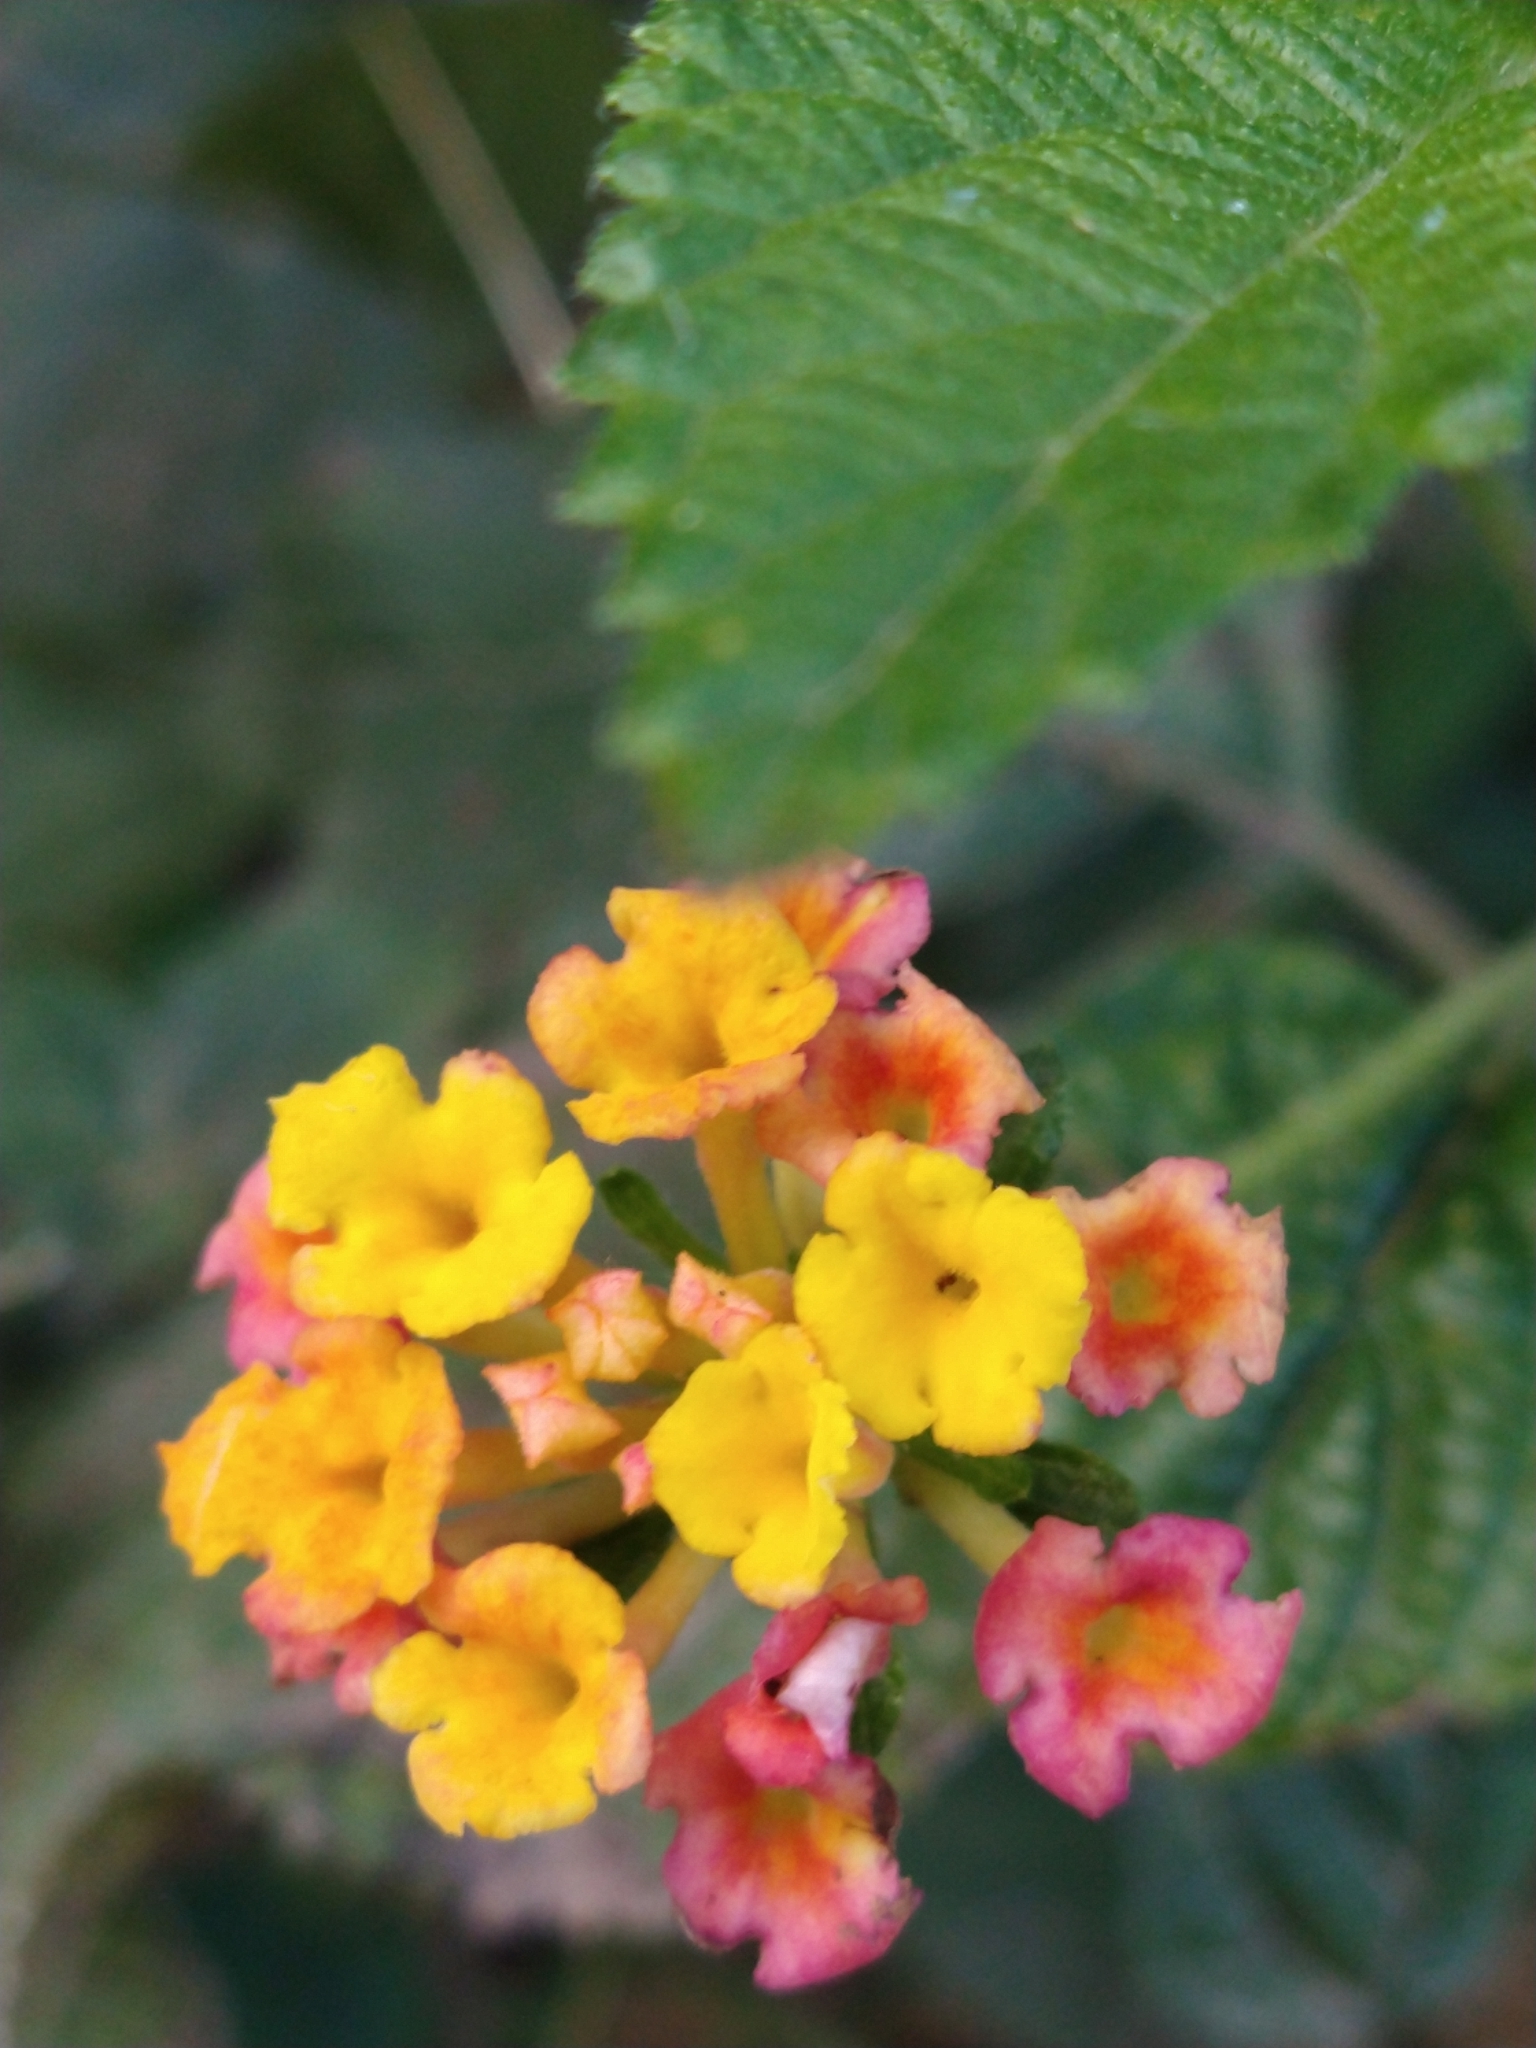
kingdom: Plantae
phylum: Tracheophyta
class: Magnoliopsida
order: Lamiales
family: Verbenaceae
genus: Lantana
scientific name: Lantana camara
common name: Lantana
